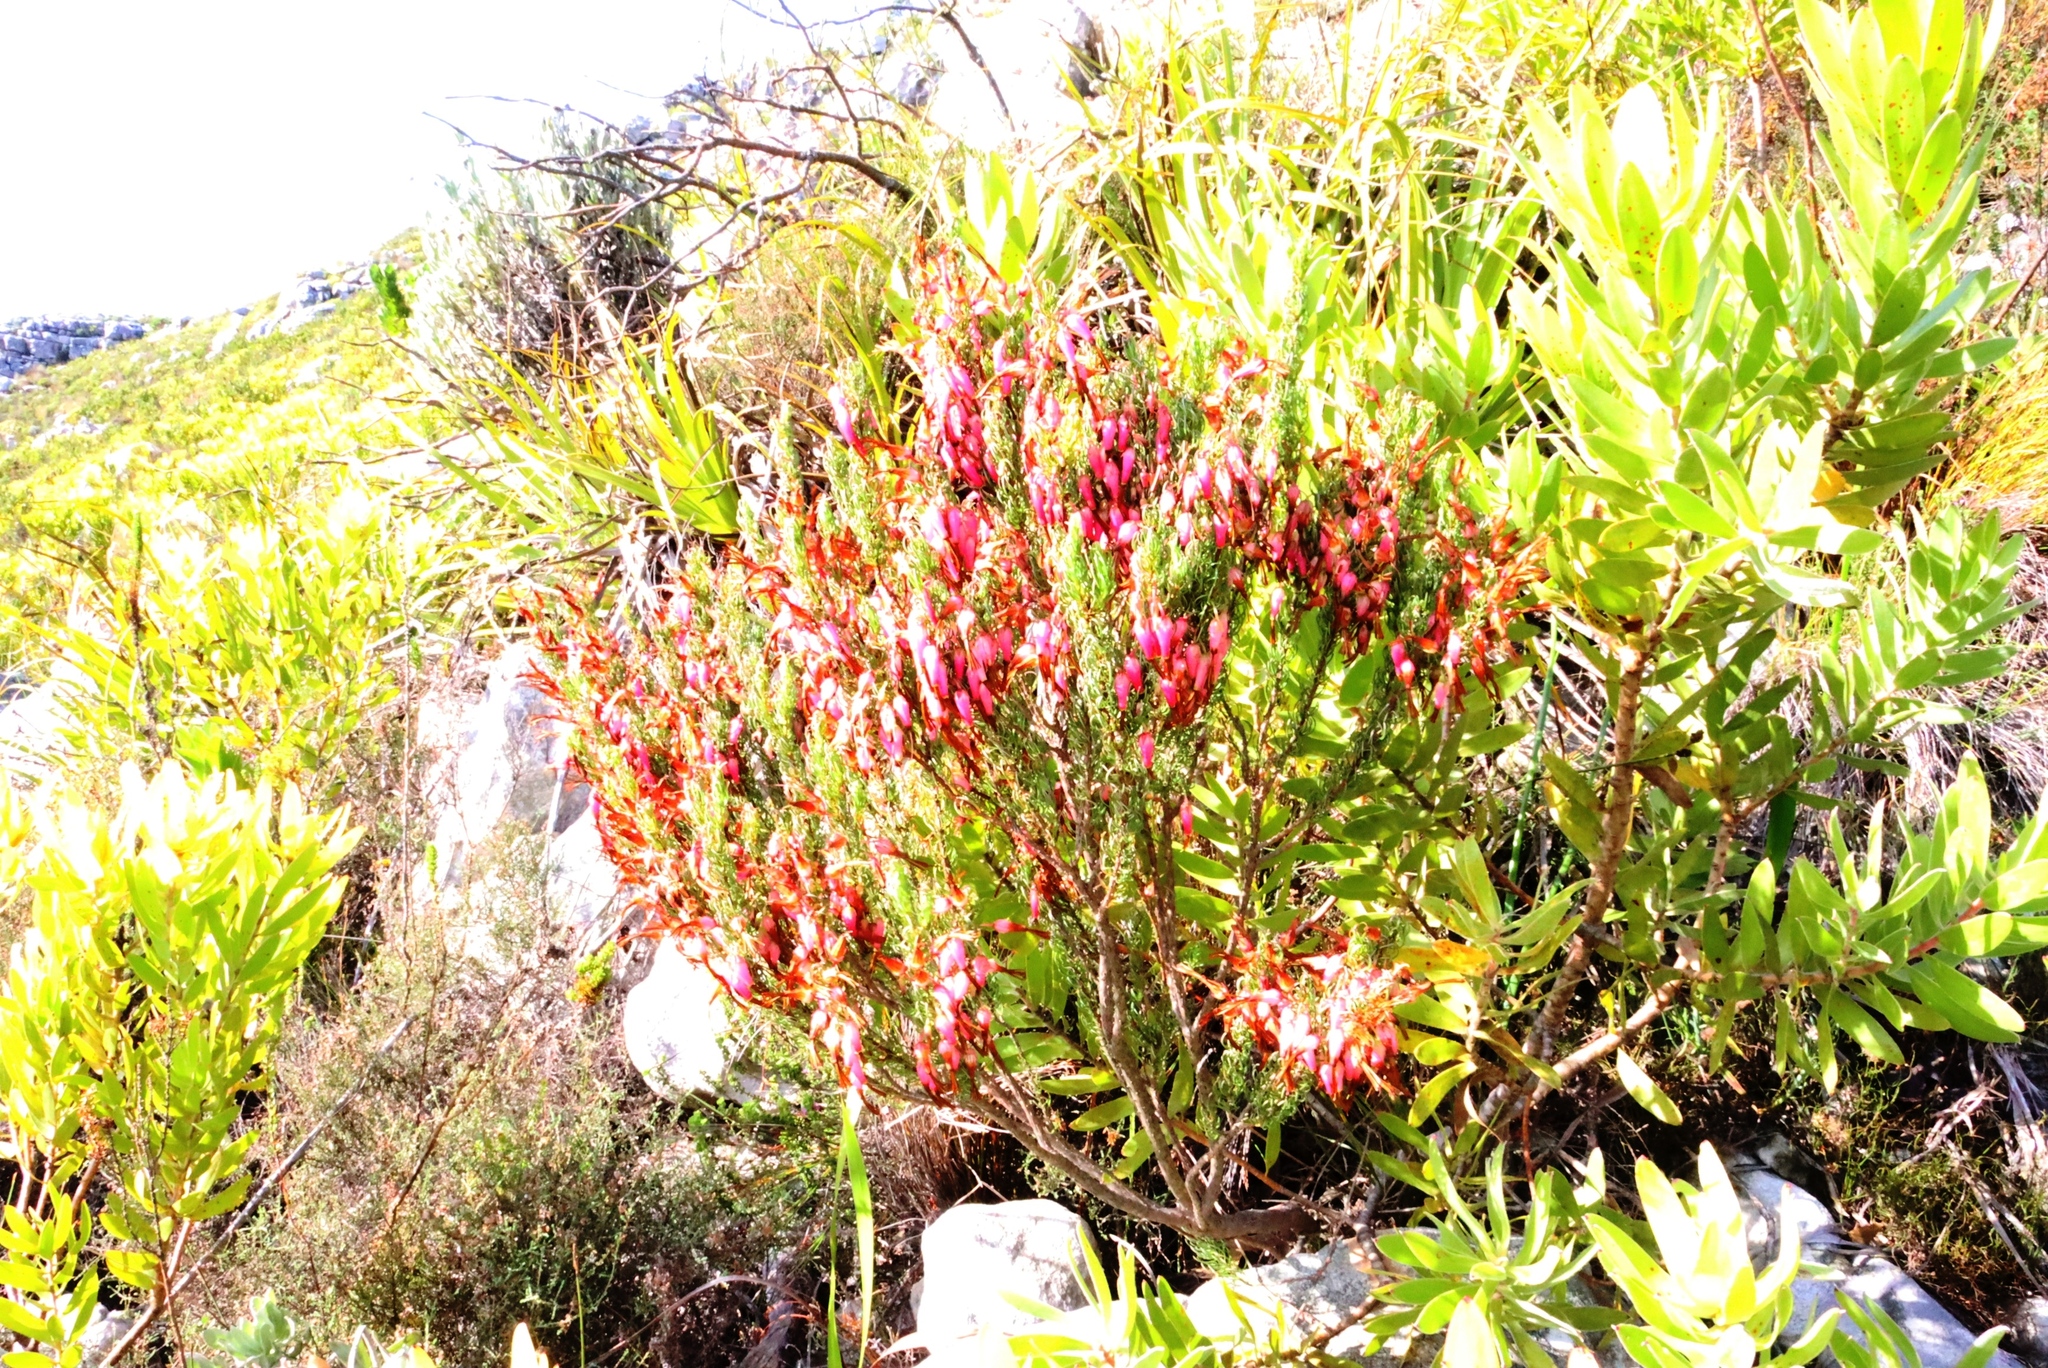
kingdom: Plantae
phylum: Tracheophyta
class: Magnoliopsida
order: Ericales
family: Ericaceae
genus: Erica
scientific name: Erica plukenetii
